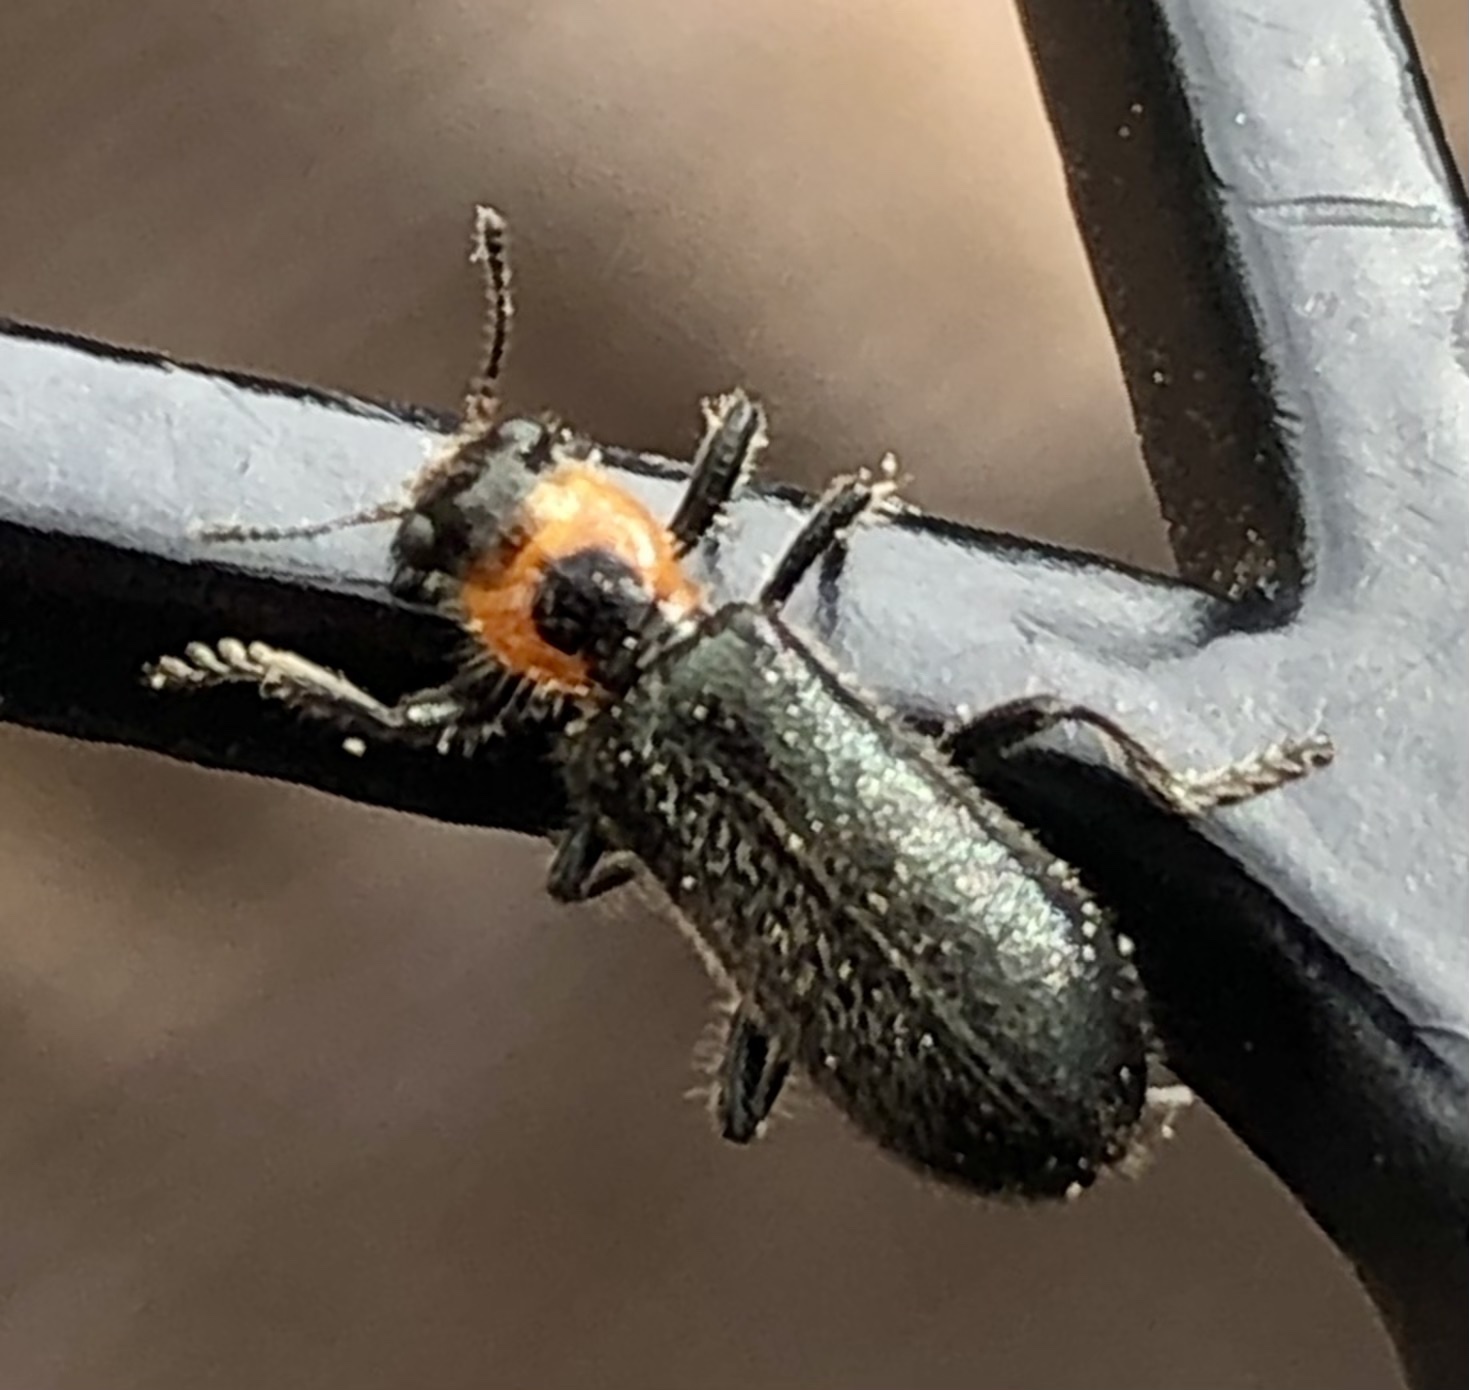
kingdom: Animalia
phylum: Arthropoda
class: Insecta
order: Coleoptera
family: Cleridae
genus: Placopterus
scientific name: Placopterus thoracicus
